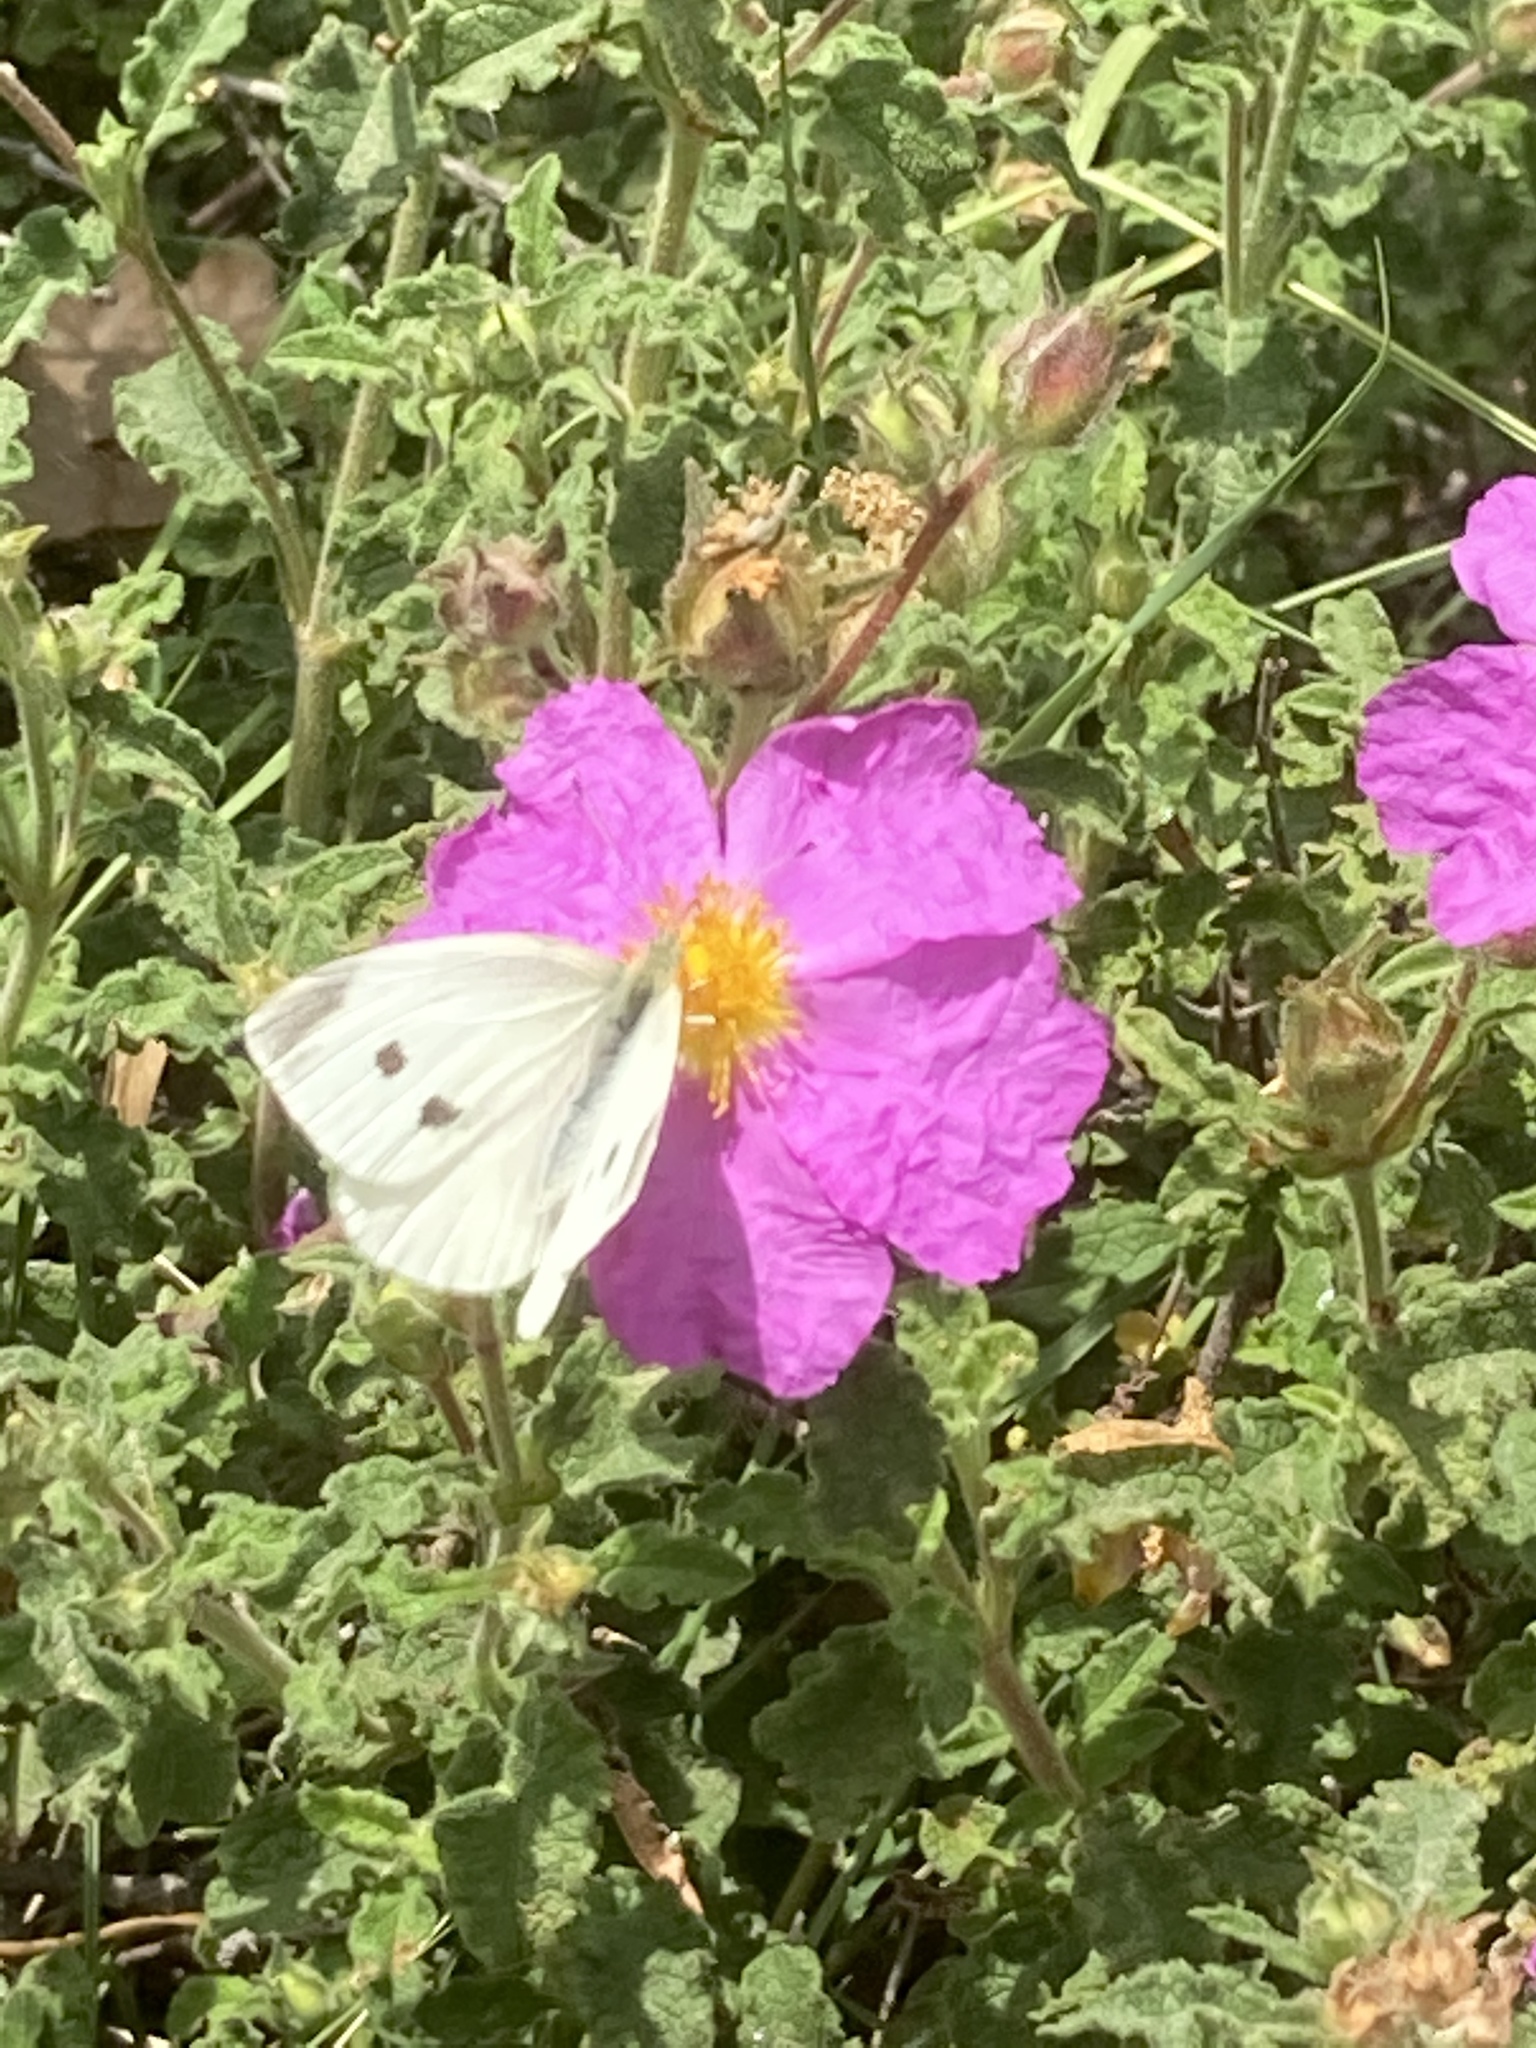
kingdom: Animalia
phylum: Arthropoda
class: Insecta
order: Lepidoptera
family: Pieridae
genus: Pieris
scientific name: Pieris rapae
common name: Small white
